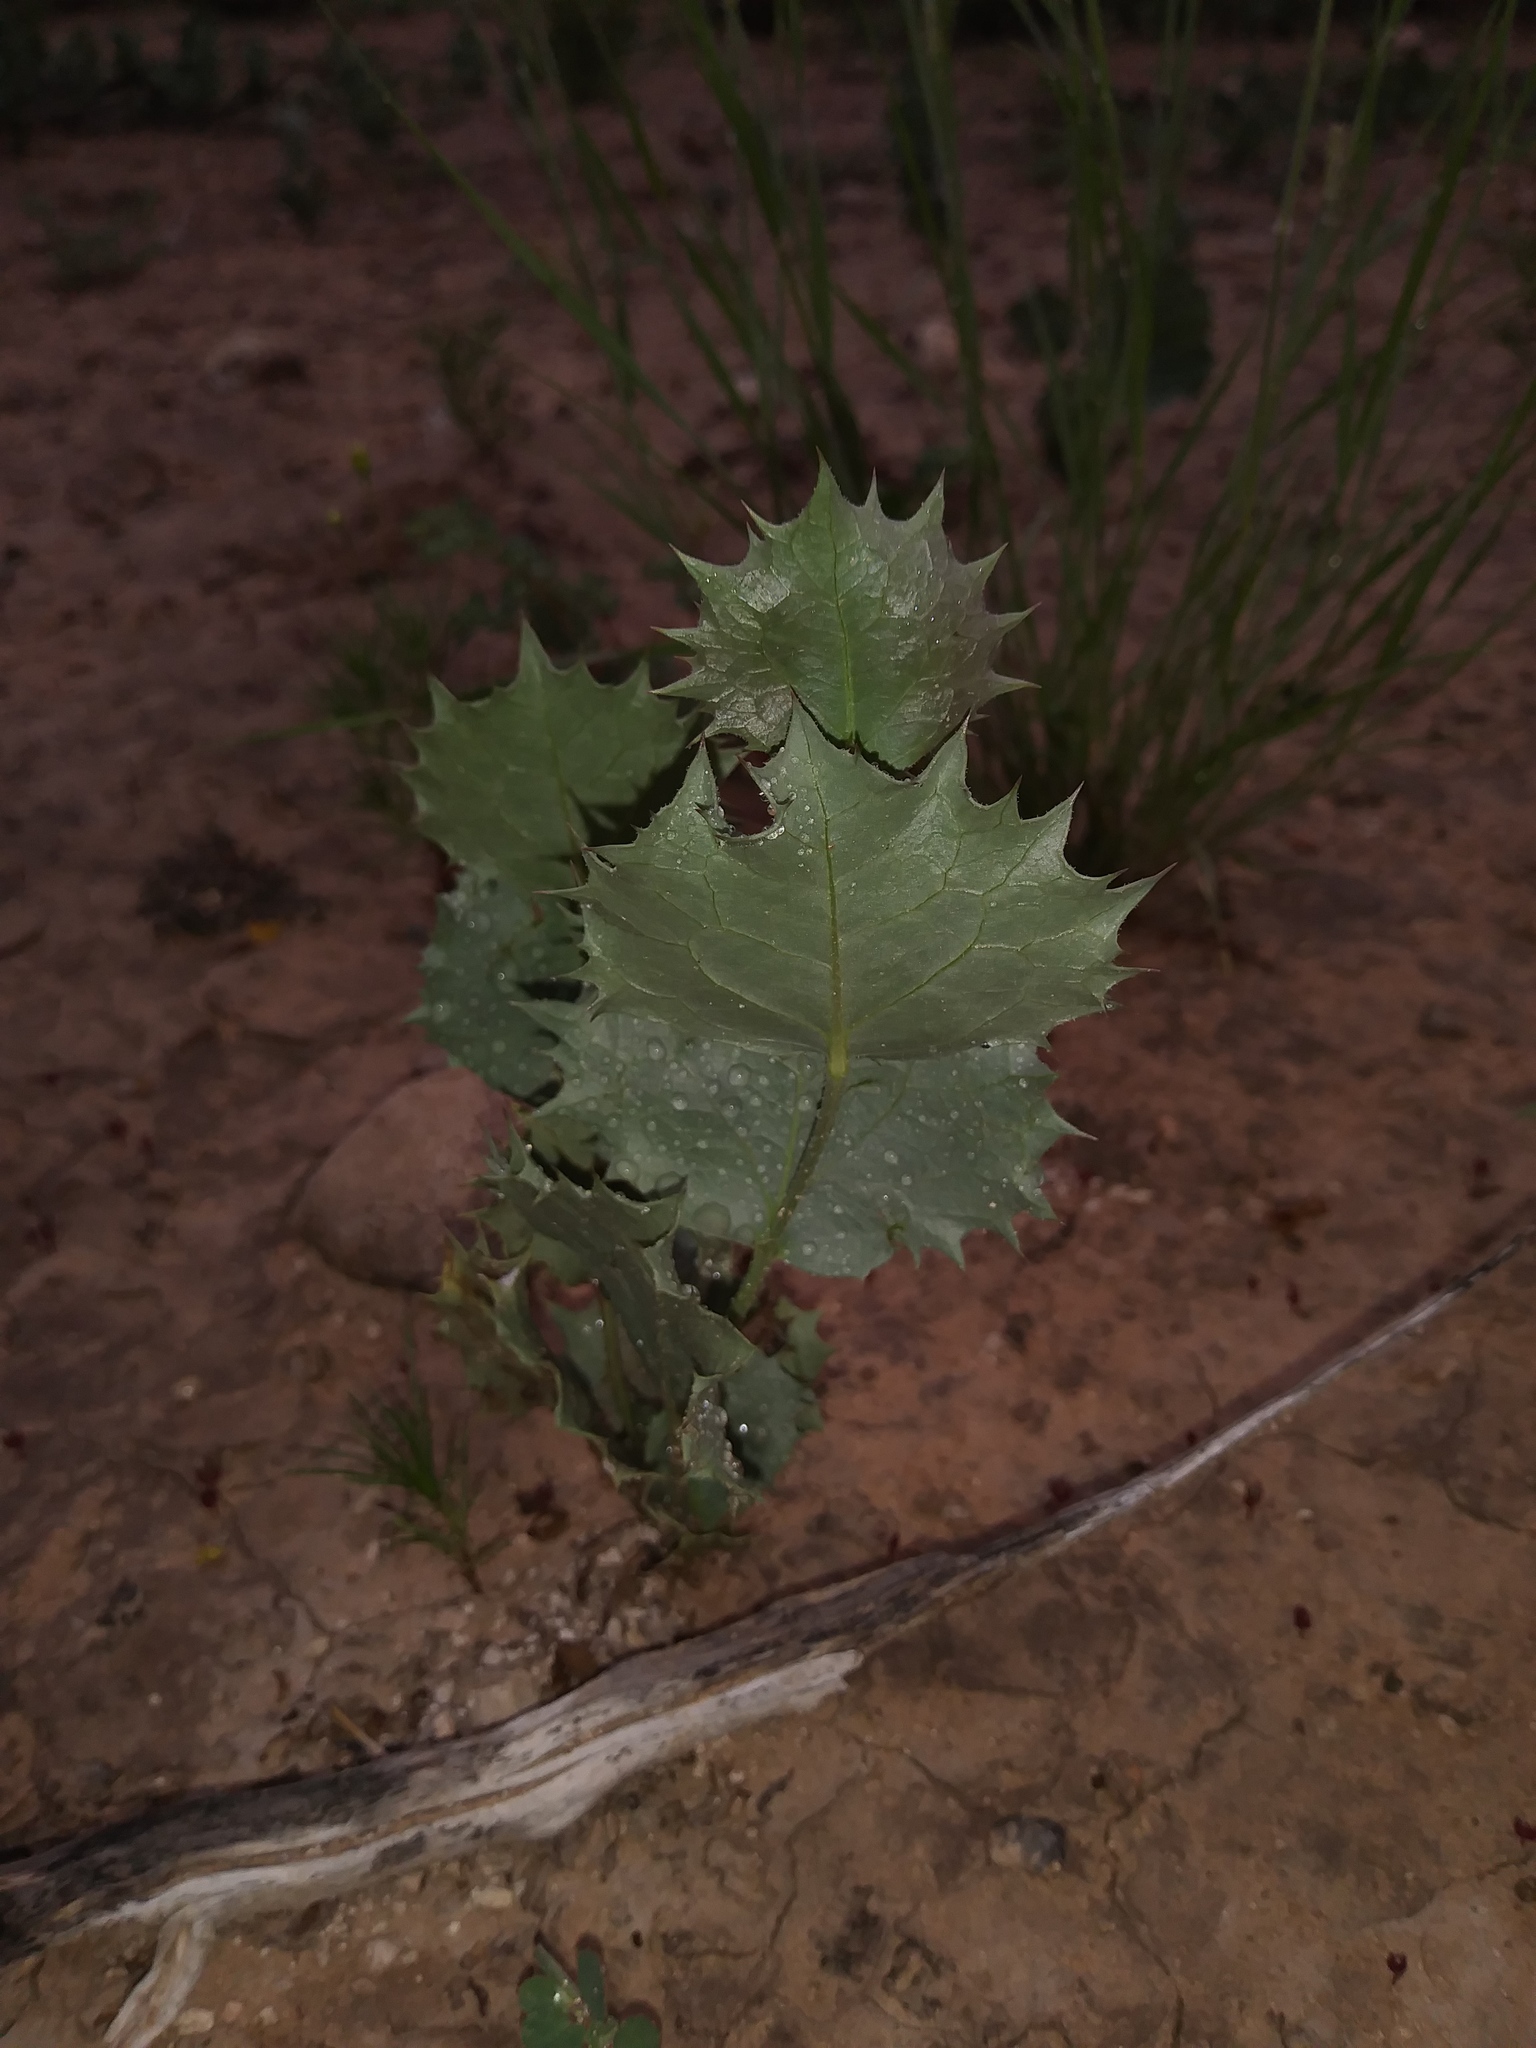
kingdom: Plantae
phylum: Tracheophyta
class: Magnoliopsida
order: Asterales
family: Asteraceae
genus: Acourtia
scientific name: Acourtia nana
